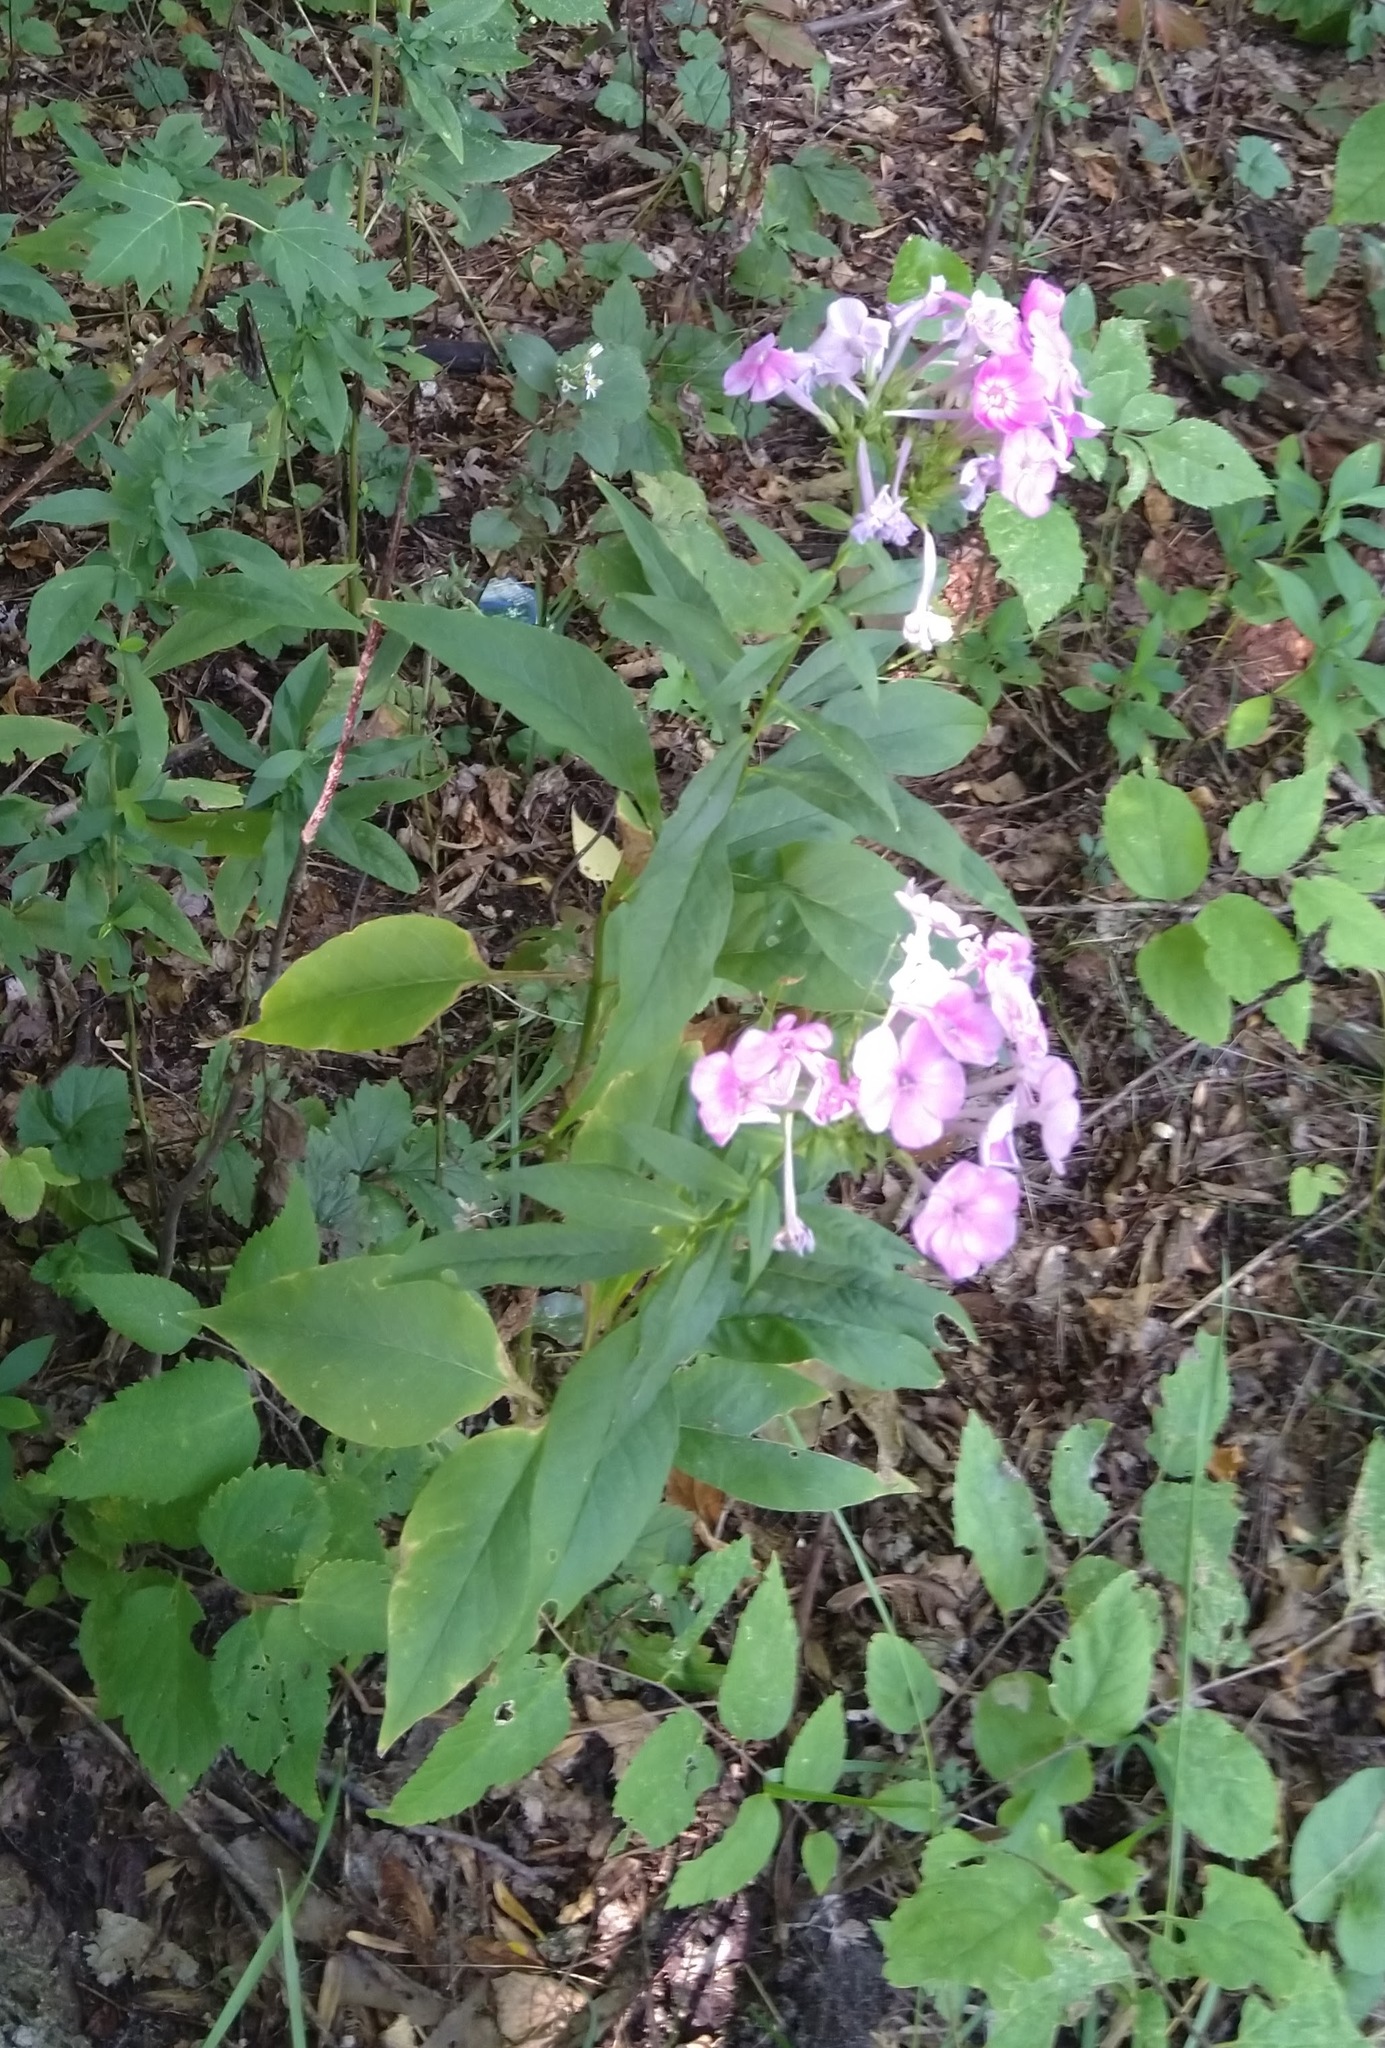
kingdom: Plantae
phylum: Tracheophyta
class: Magnoliopsida
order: Ericales
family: Polemoniaceae
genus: Phlox
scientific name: Phlox paniculata
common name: Fall phlox
